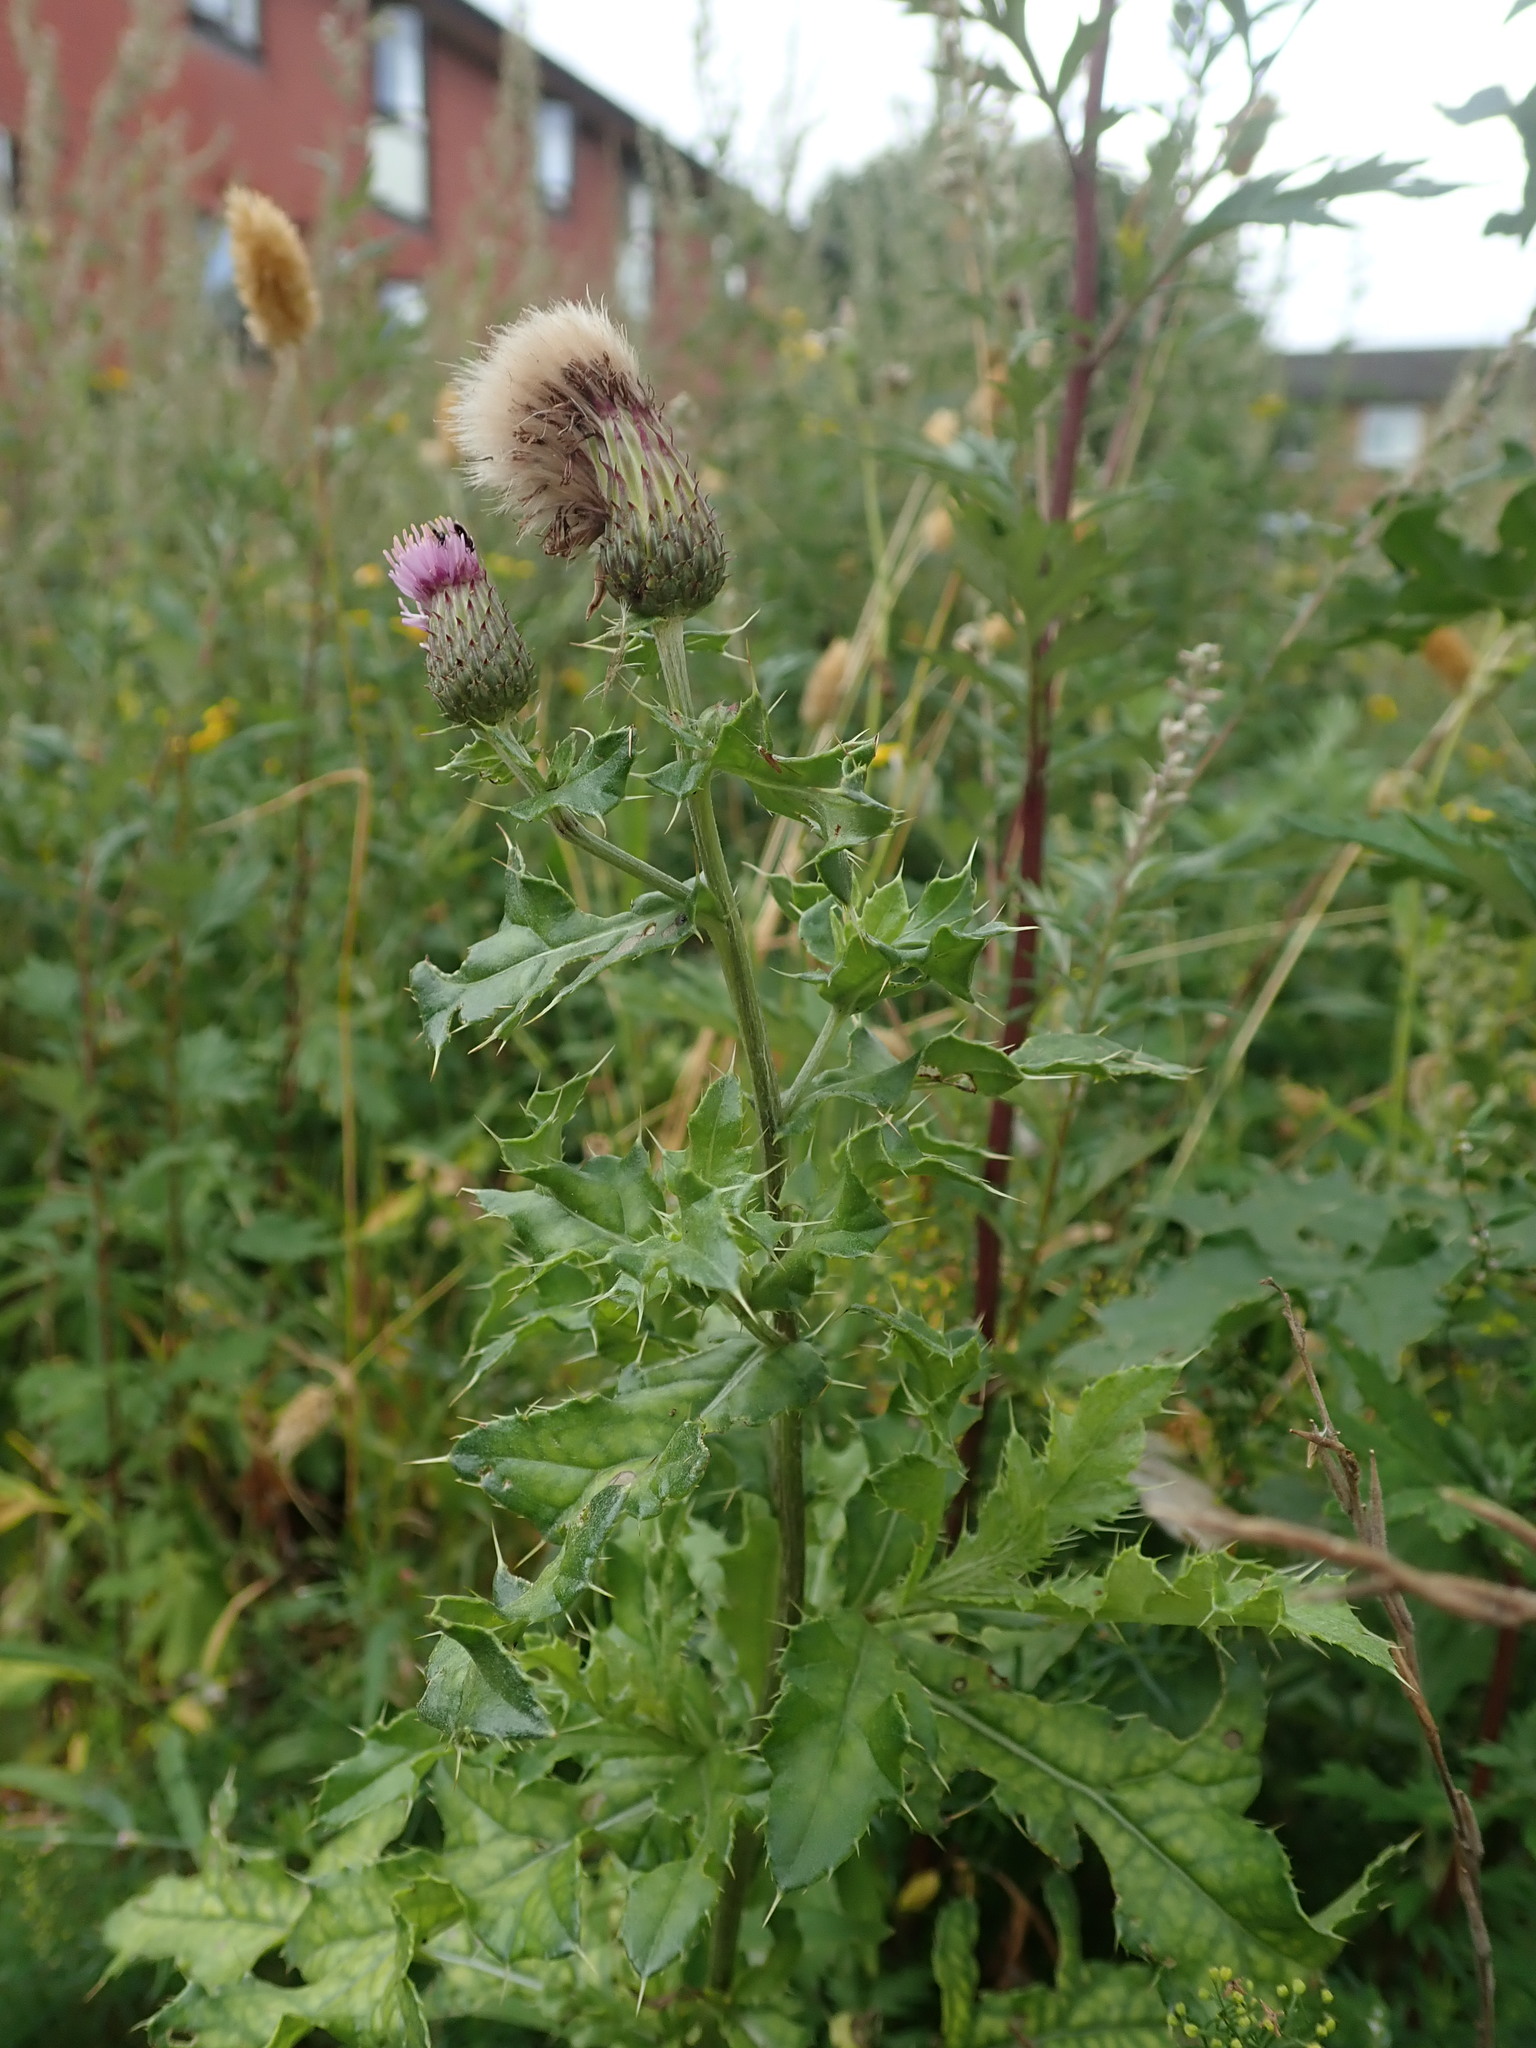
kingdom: Plantae
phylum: Tracheophyta
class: Magnoliopsida
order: Asterales
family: Asteraceae
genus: Cirsium
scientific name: Cirsium arvense
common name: Creeping thistle
